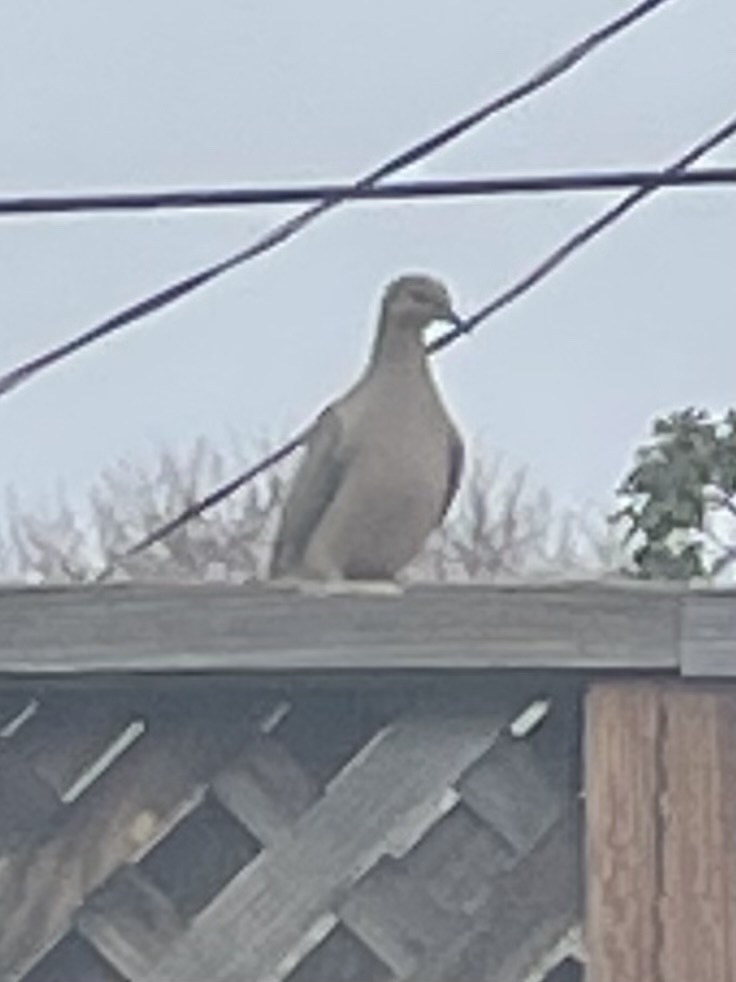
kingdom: Animalia
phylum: Chordata
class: Aves
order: Columbiformes
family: Columbidae
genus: Zenaida
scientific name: Zenaida macroura
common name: Mourning dove
